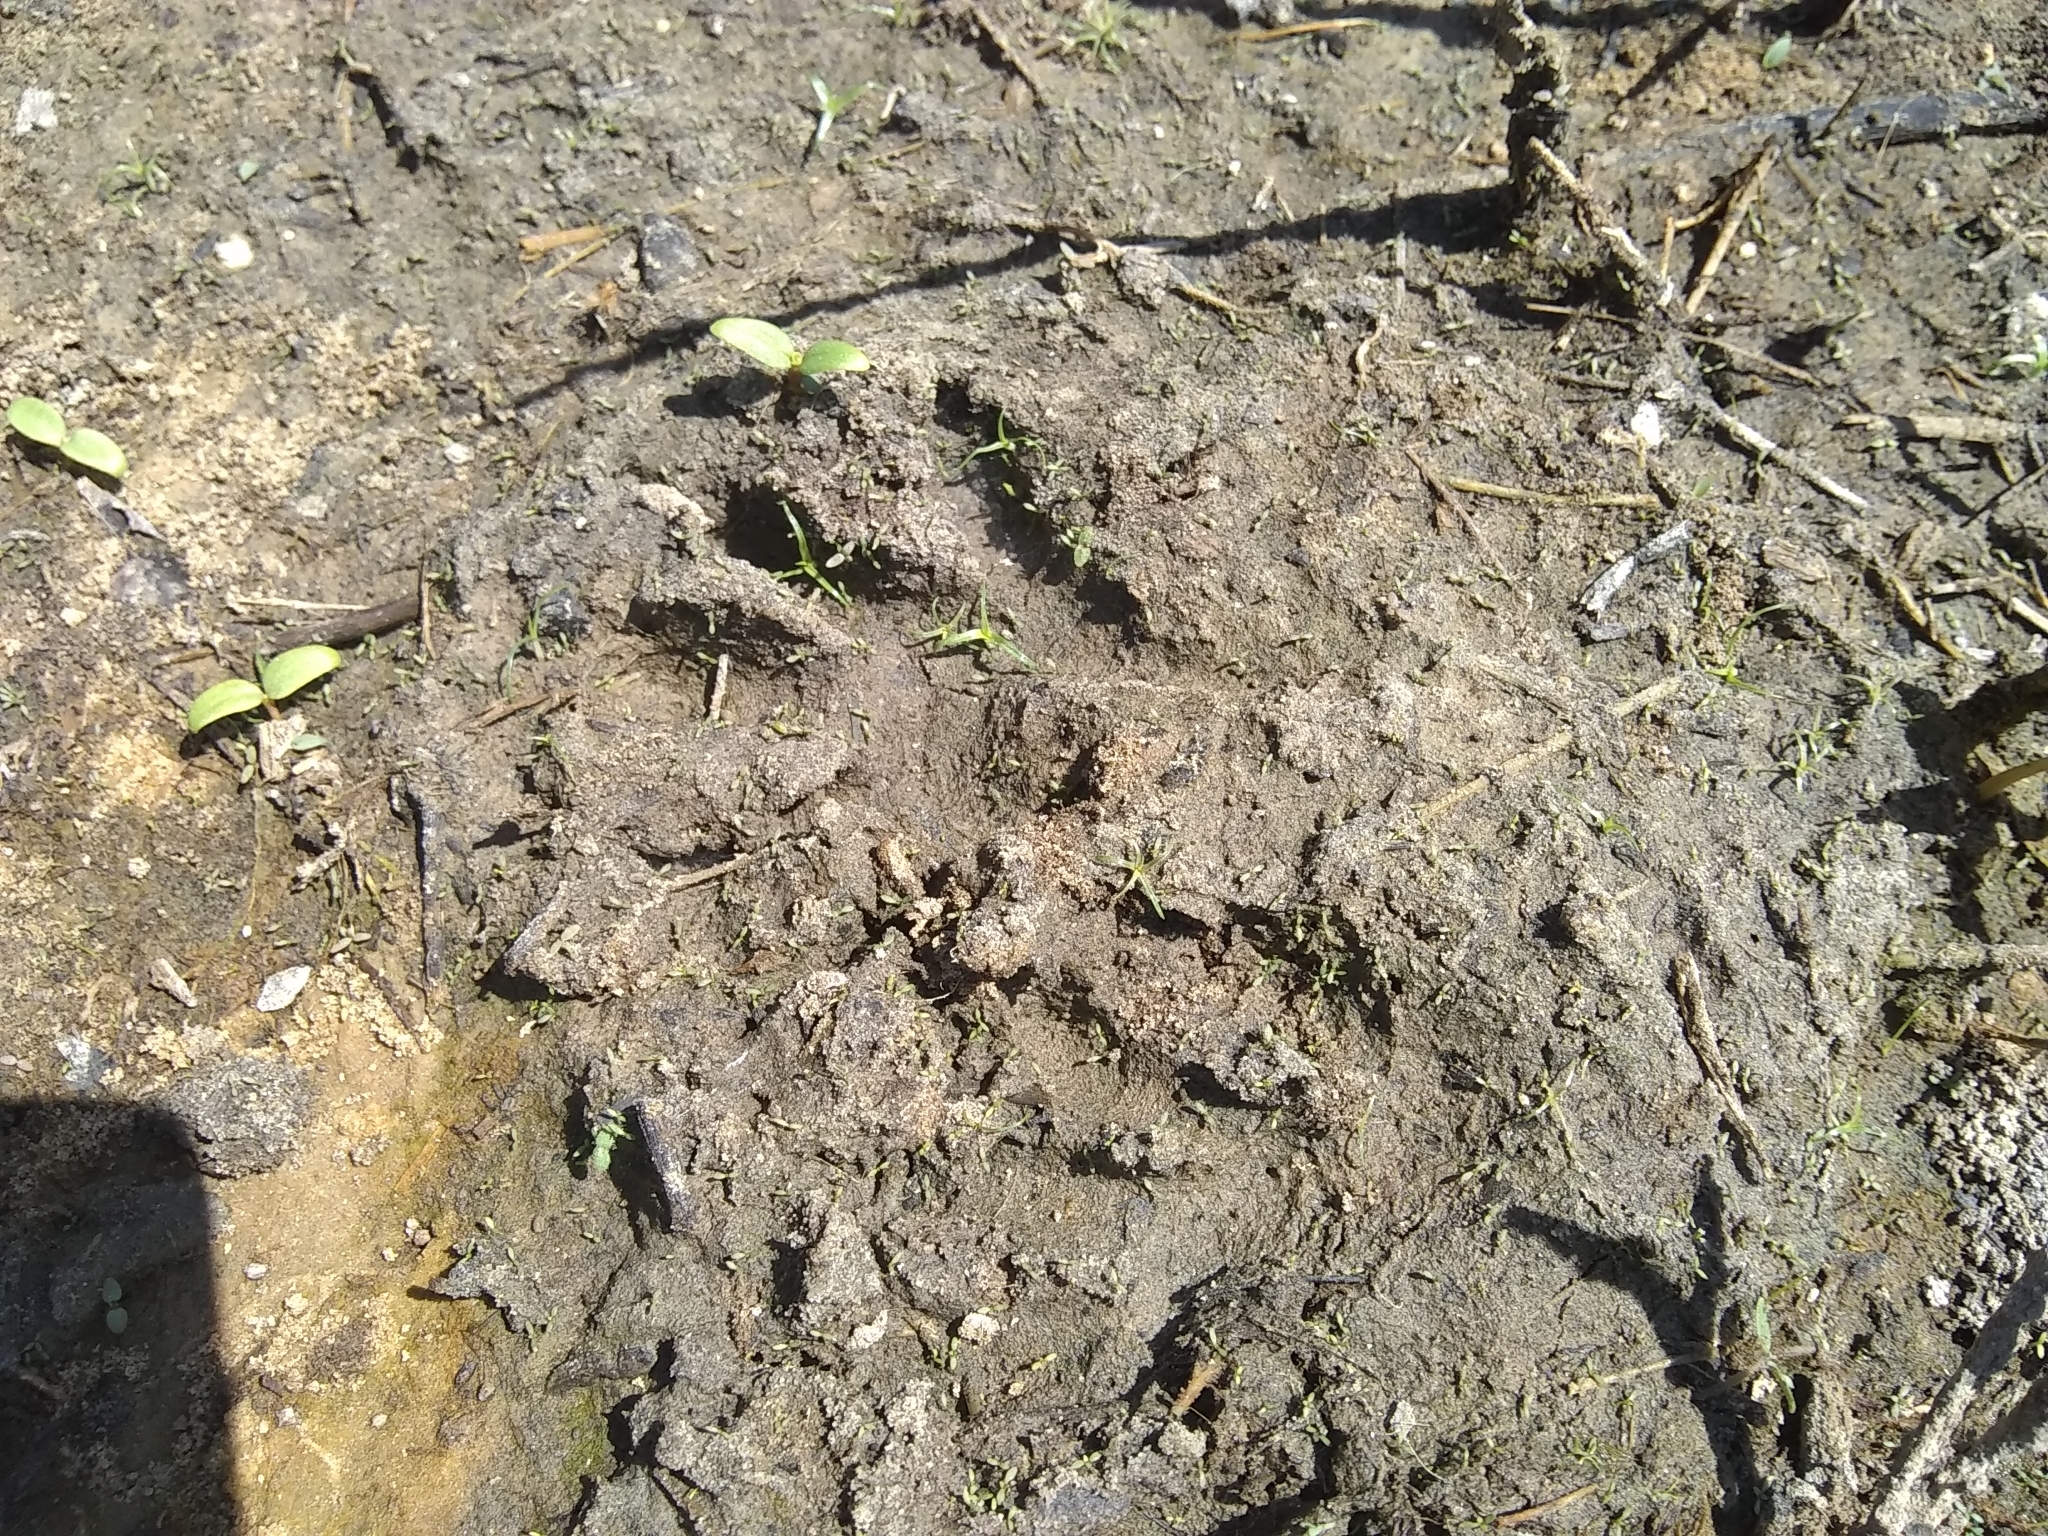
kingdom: Animalia
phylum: Chordata
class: Mammalia
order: Carnivora
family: Procyonidae
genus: Procyon
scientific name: Procyon lotor
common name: Raccoon
